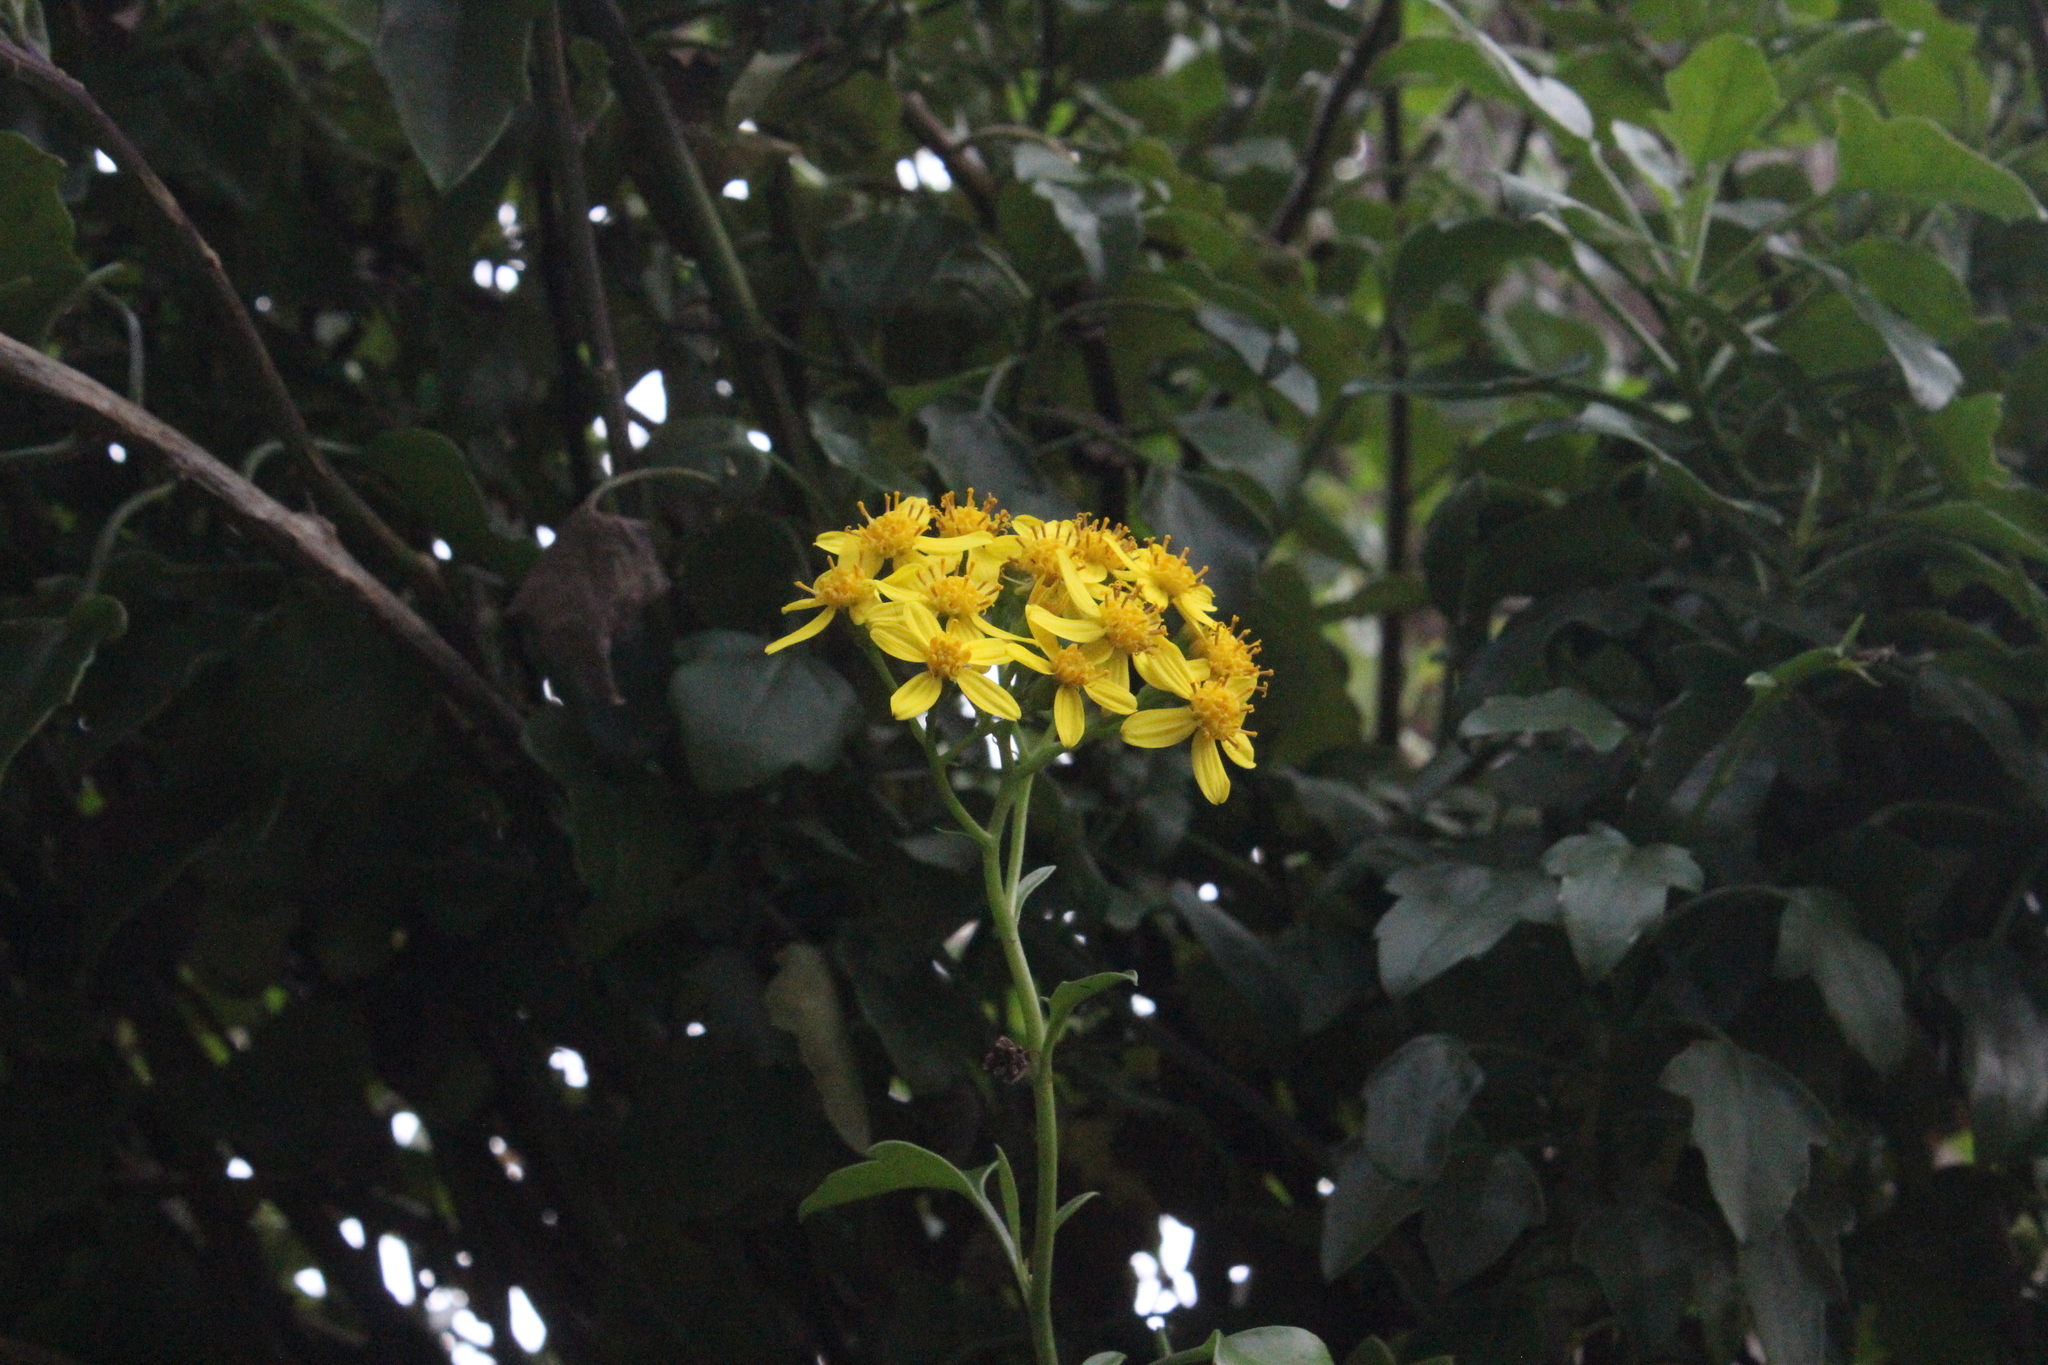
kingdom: Plantae
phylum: Tracheophyta
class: Magnoliopsida
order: Asterales
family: Asteraceae
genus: Senecio
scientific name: Senecio angulatus
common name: Climbing groundsel
